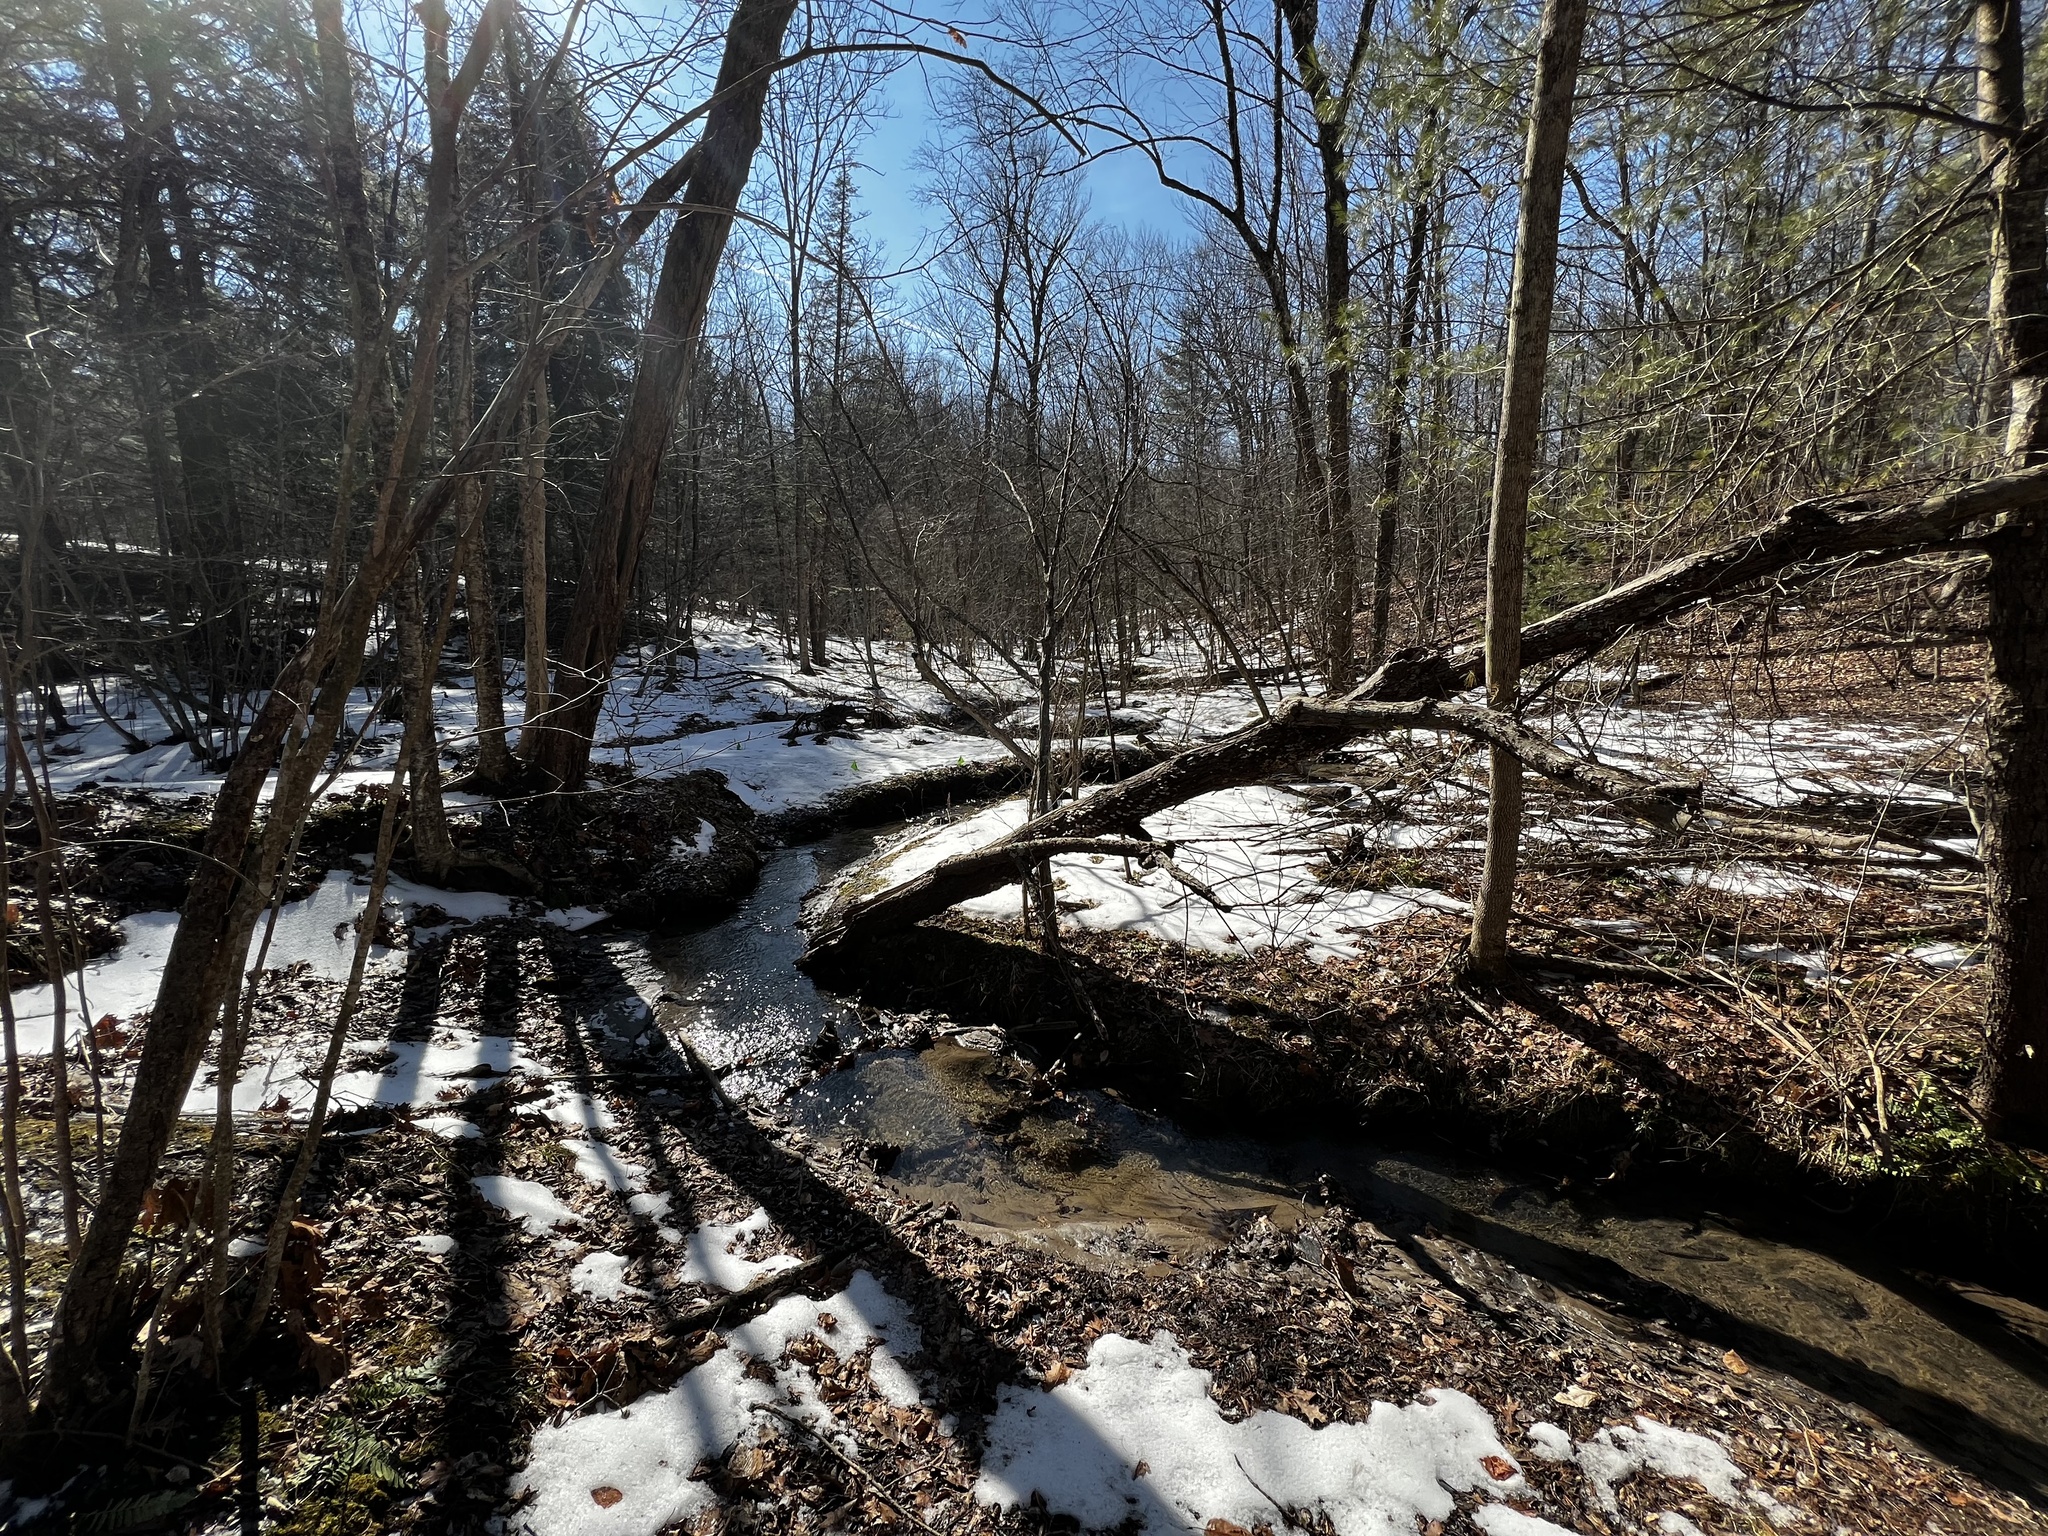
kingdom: Plantae
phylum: Tracheophyta
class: Polypodiopsida
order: Polypodiales
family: Dryopteridaceae
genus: Polystichum
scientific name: Polystichum acrostichoides
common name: Christmas fern
